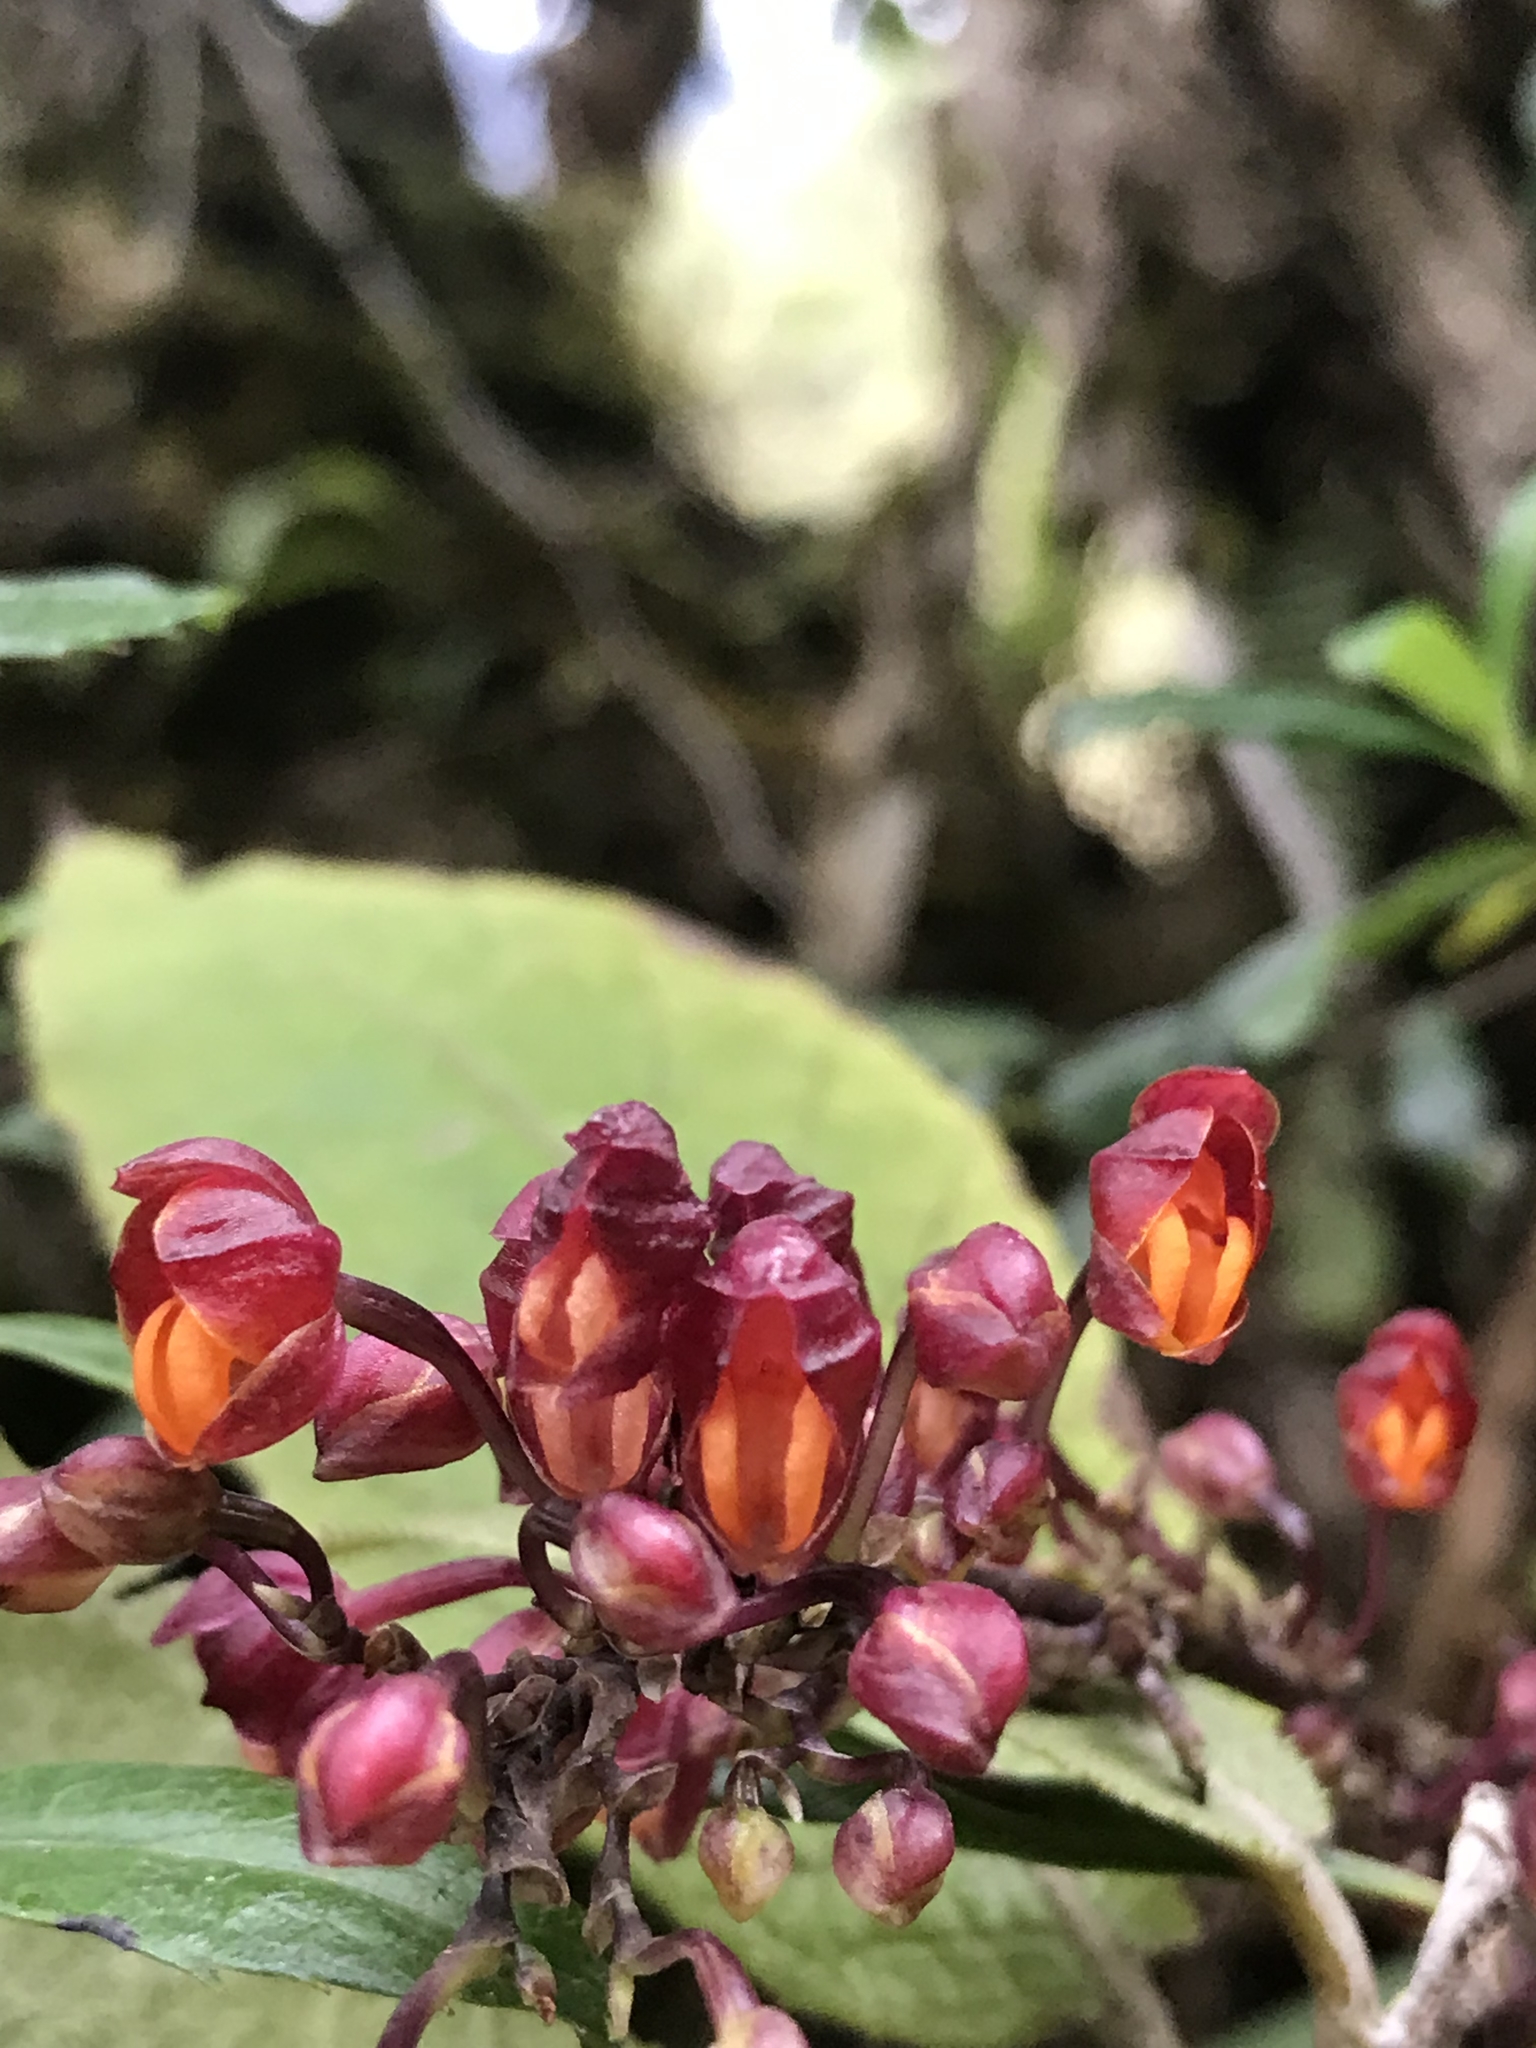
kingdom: Plantae
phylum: Tracheophyta
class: Liliopsida
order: Asparagales
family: Orchidaceae
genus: Cyrtochilum
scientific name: Cyrtochilum rhodoneurum
